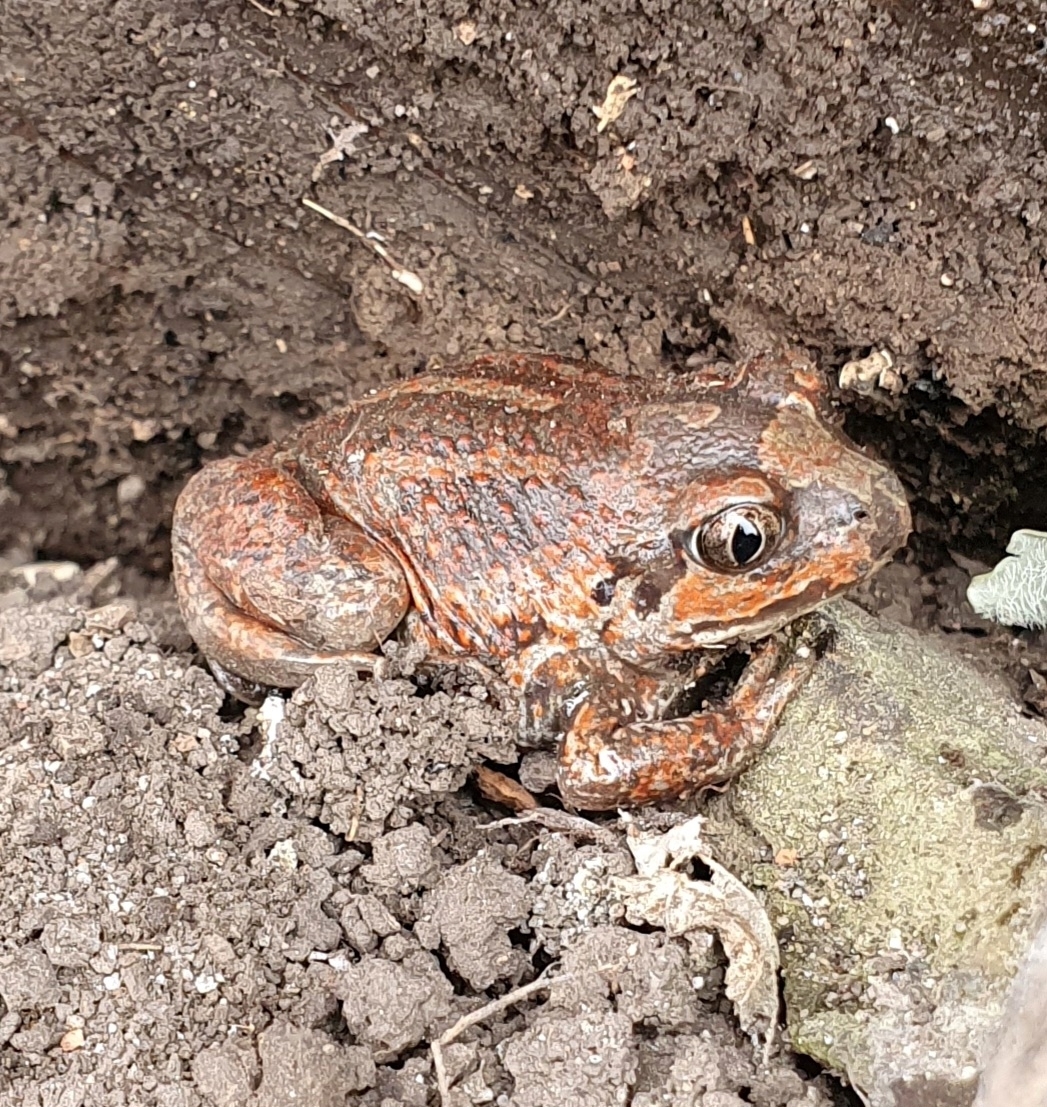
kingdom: Animalia
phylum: Chordata
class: Amphibia
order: Anura
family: Pelobatidae
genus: Pelobates
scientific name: Pelobates vespertinus
